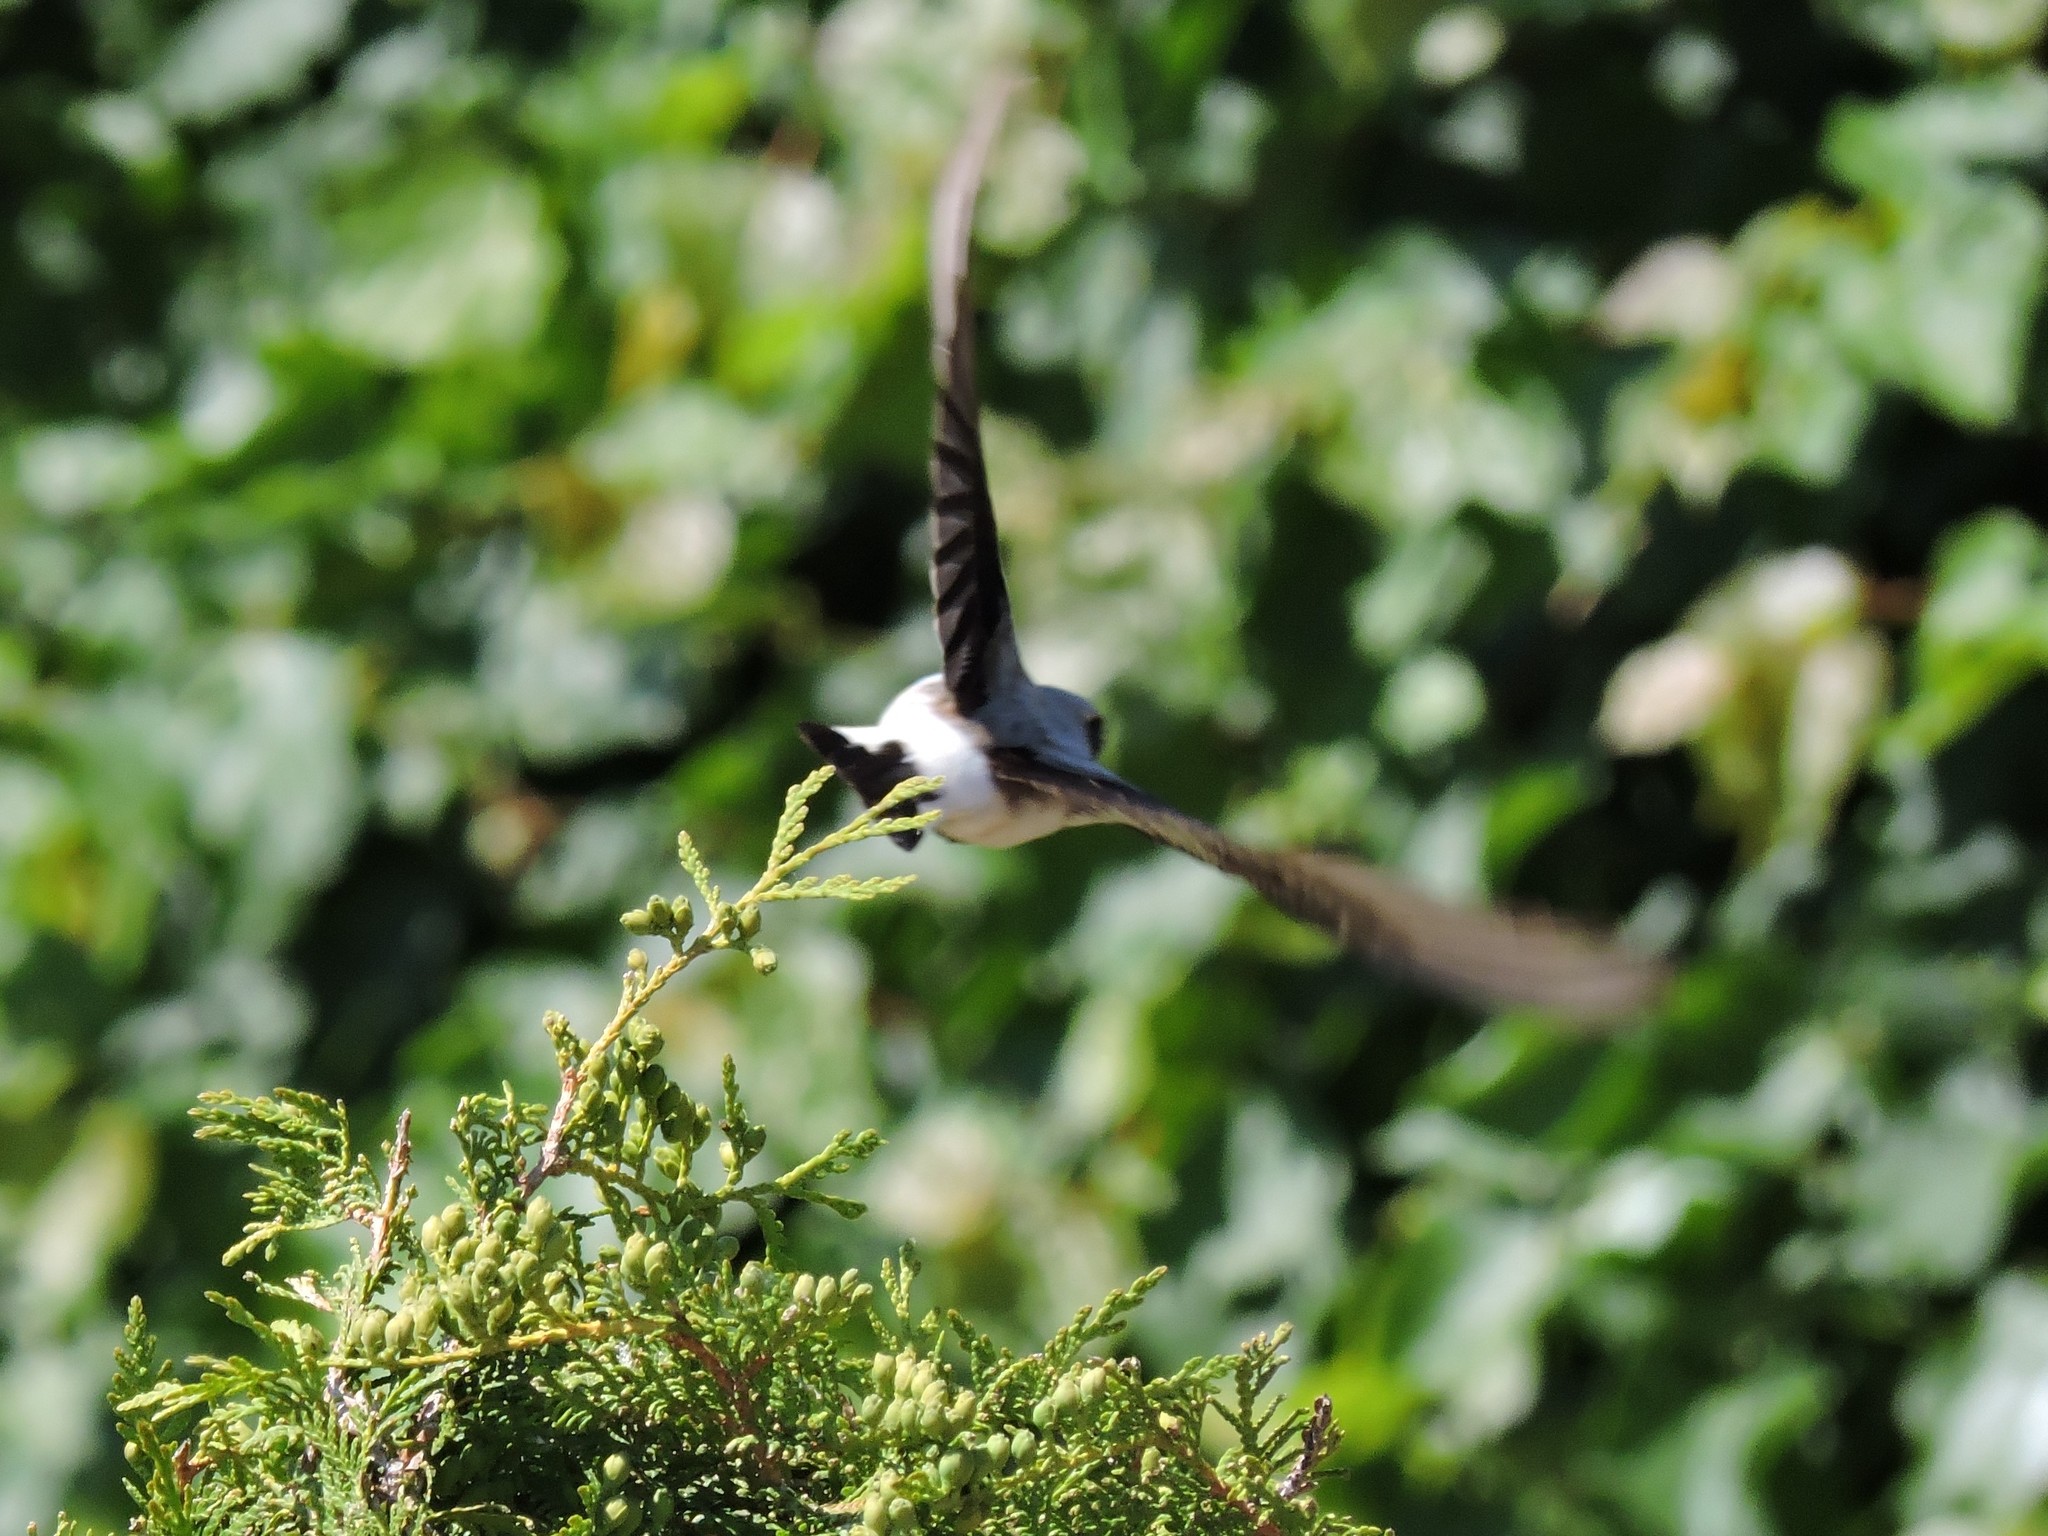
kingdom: Animalia
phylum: Chordata
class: Aves
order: Passeriformes
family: Muscicapidae
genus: Oenanthe
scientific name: Oenanthe oenanthe
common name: Northern wheatear
